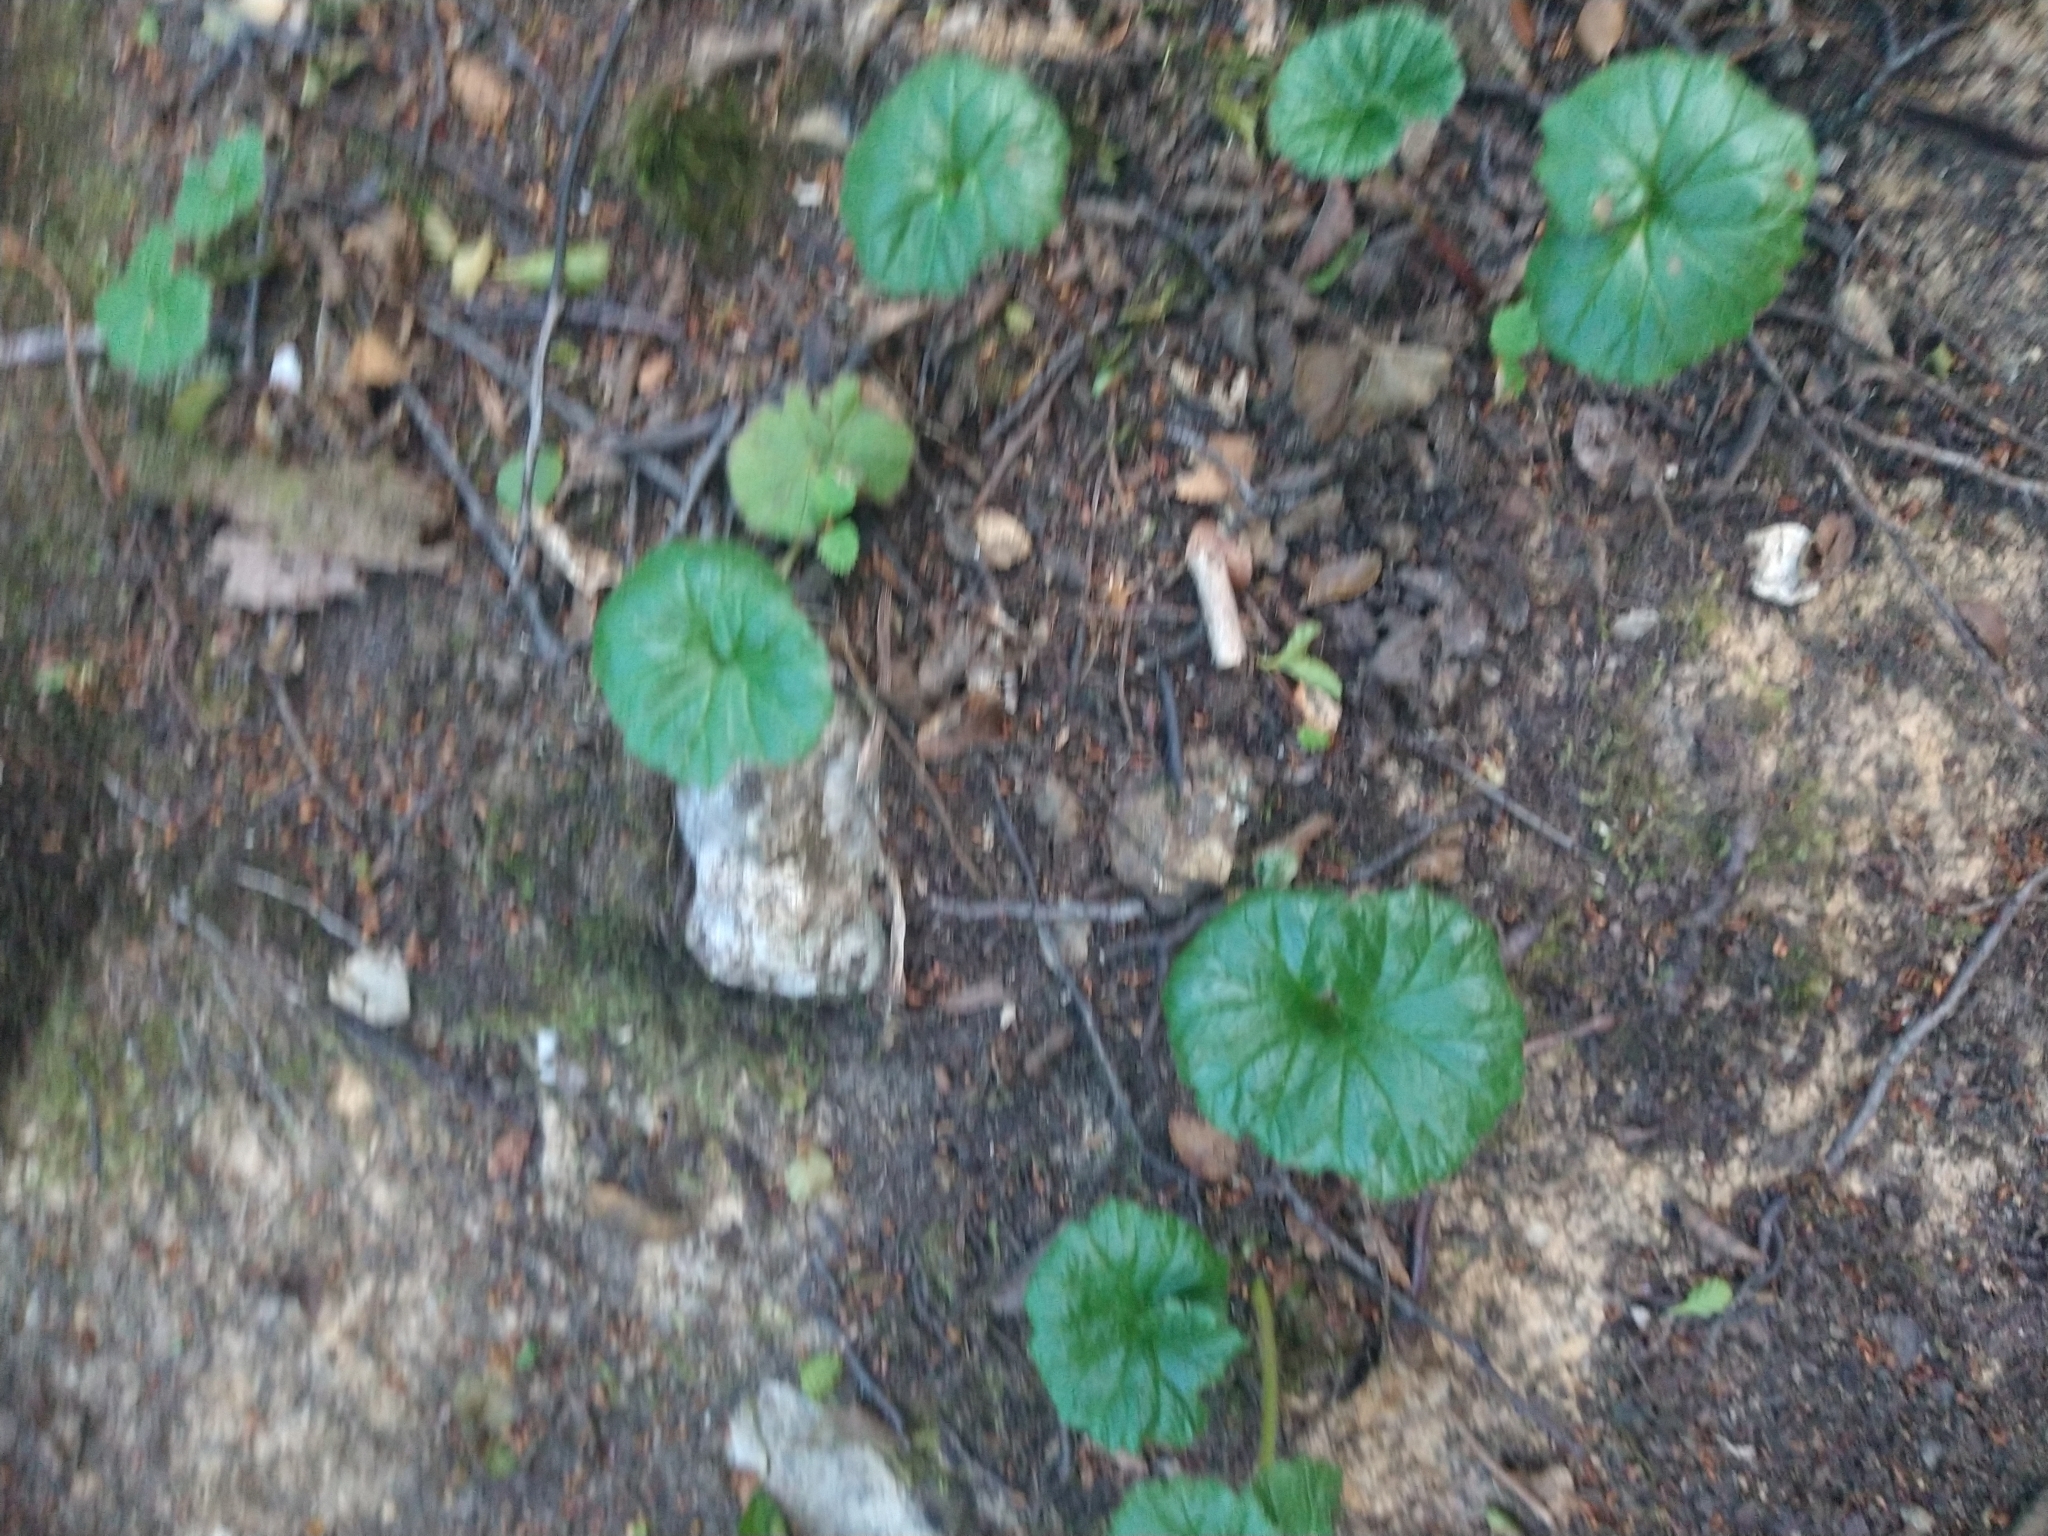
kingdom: Plantae
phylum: Tracheophyta
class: Magnoliopsida
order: Gunnerales
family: Gunneraceae
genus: Gunnera
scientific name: Gunnera magellanica
